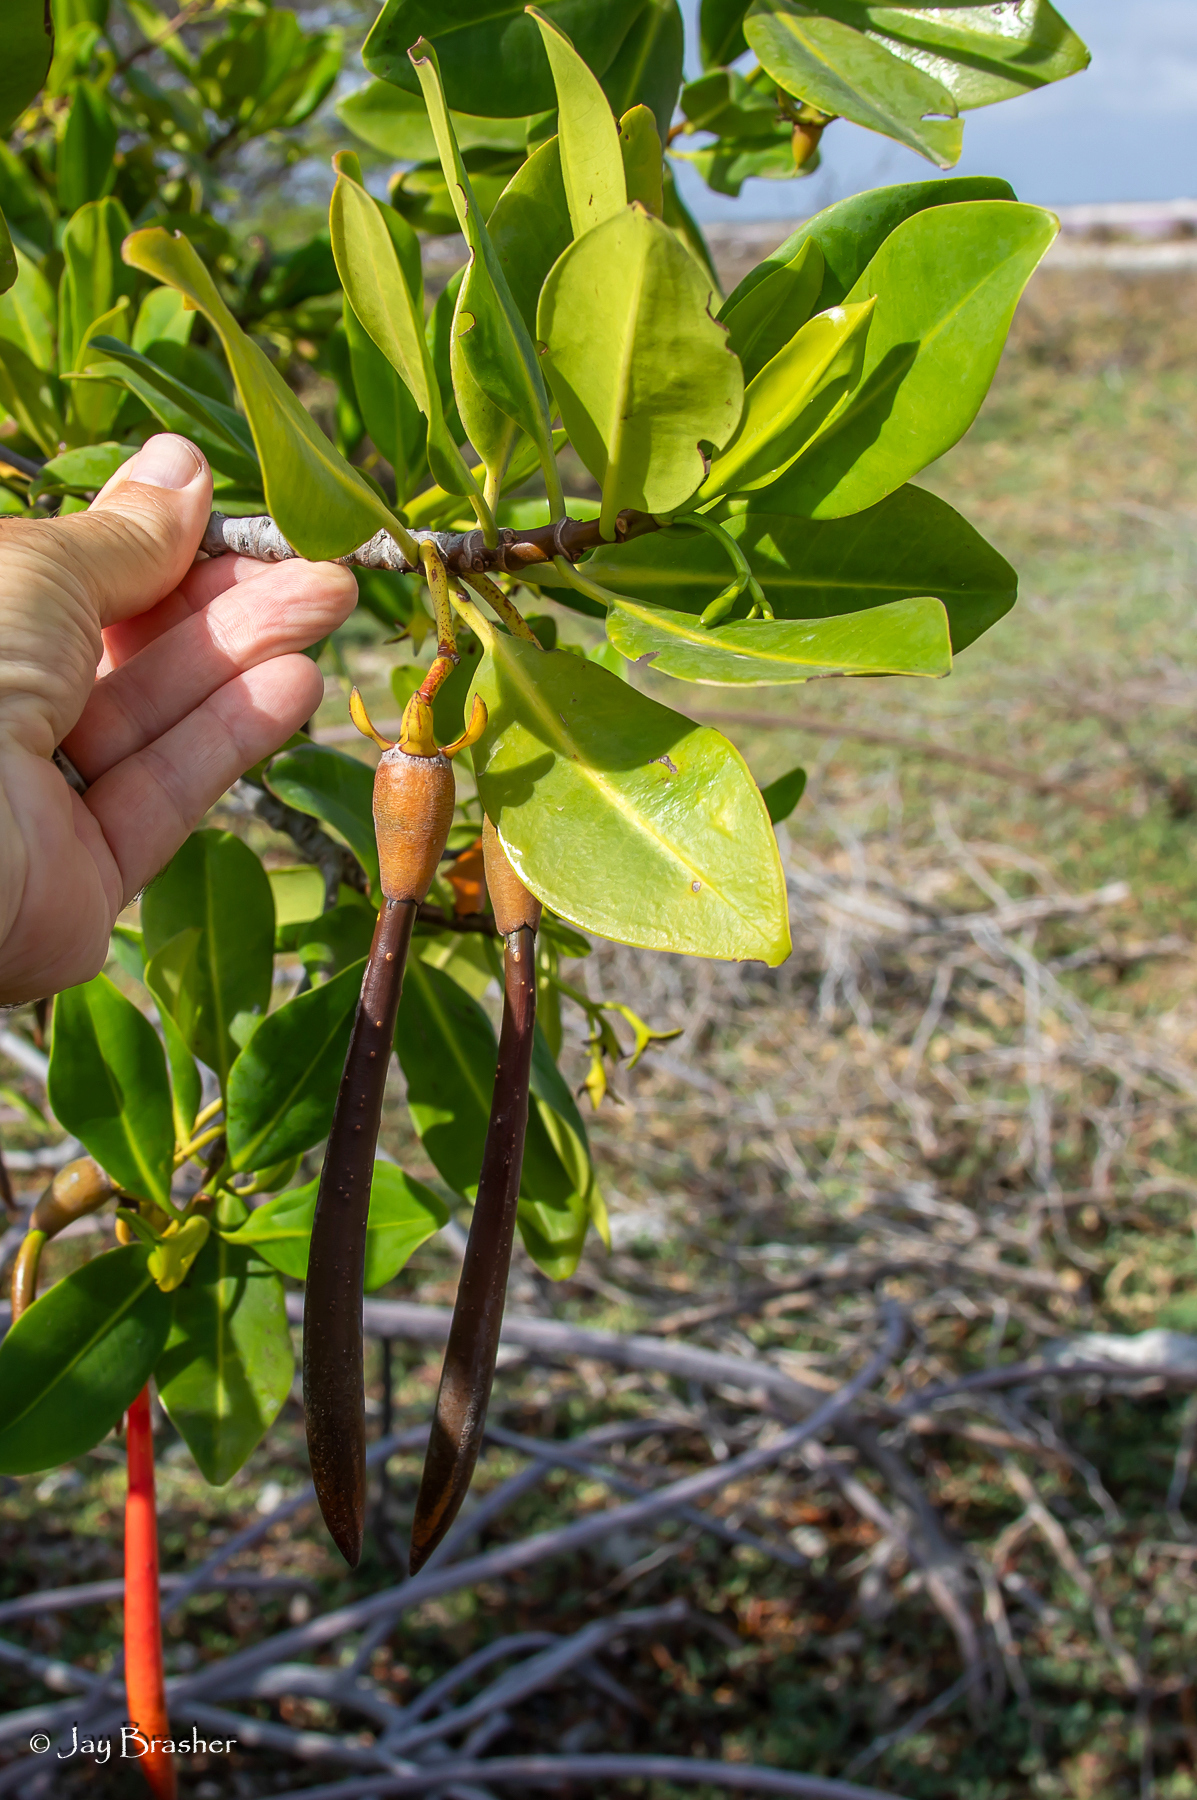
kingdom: Plantae
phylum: Tracheophyta
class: Magnoliopsida
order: Malpighiales
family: Rhizophoraceae
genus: Rhizophora
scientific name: Rhizophora mangle
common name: Red mangrove
